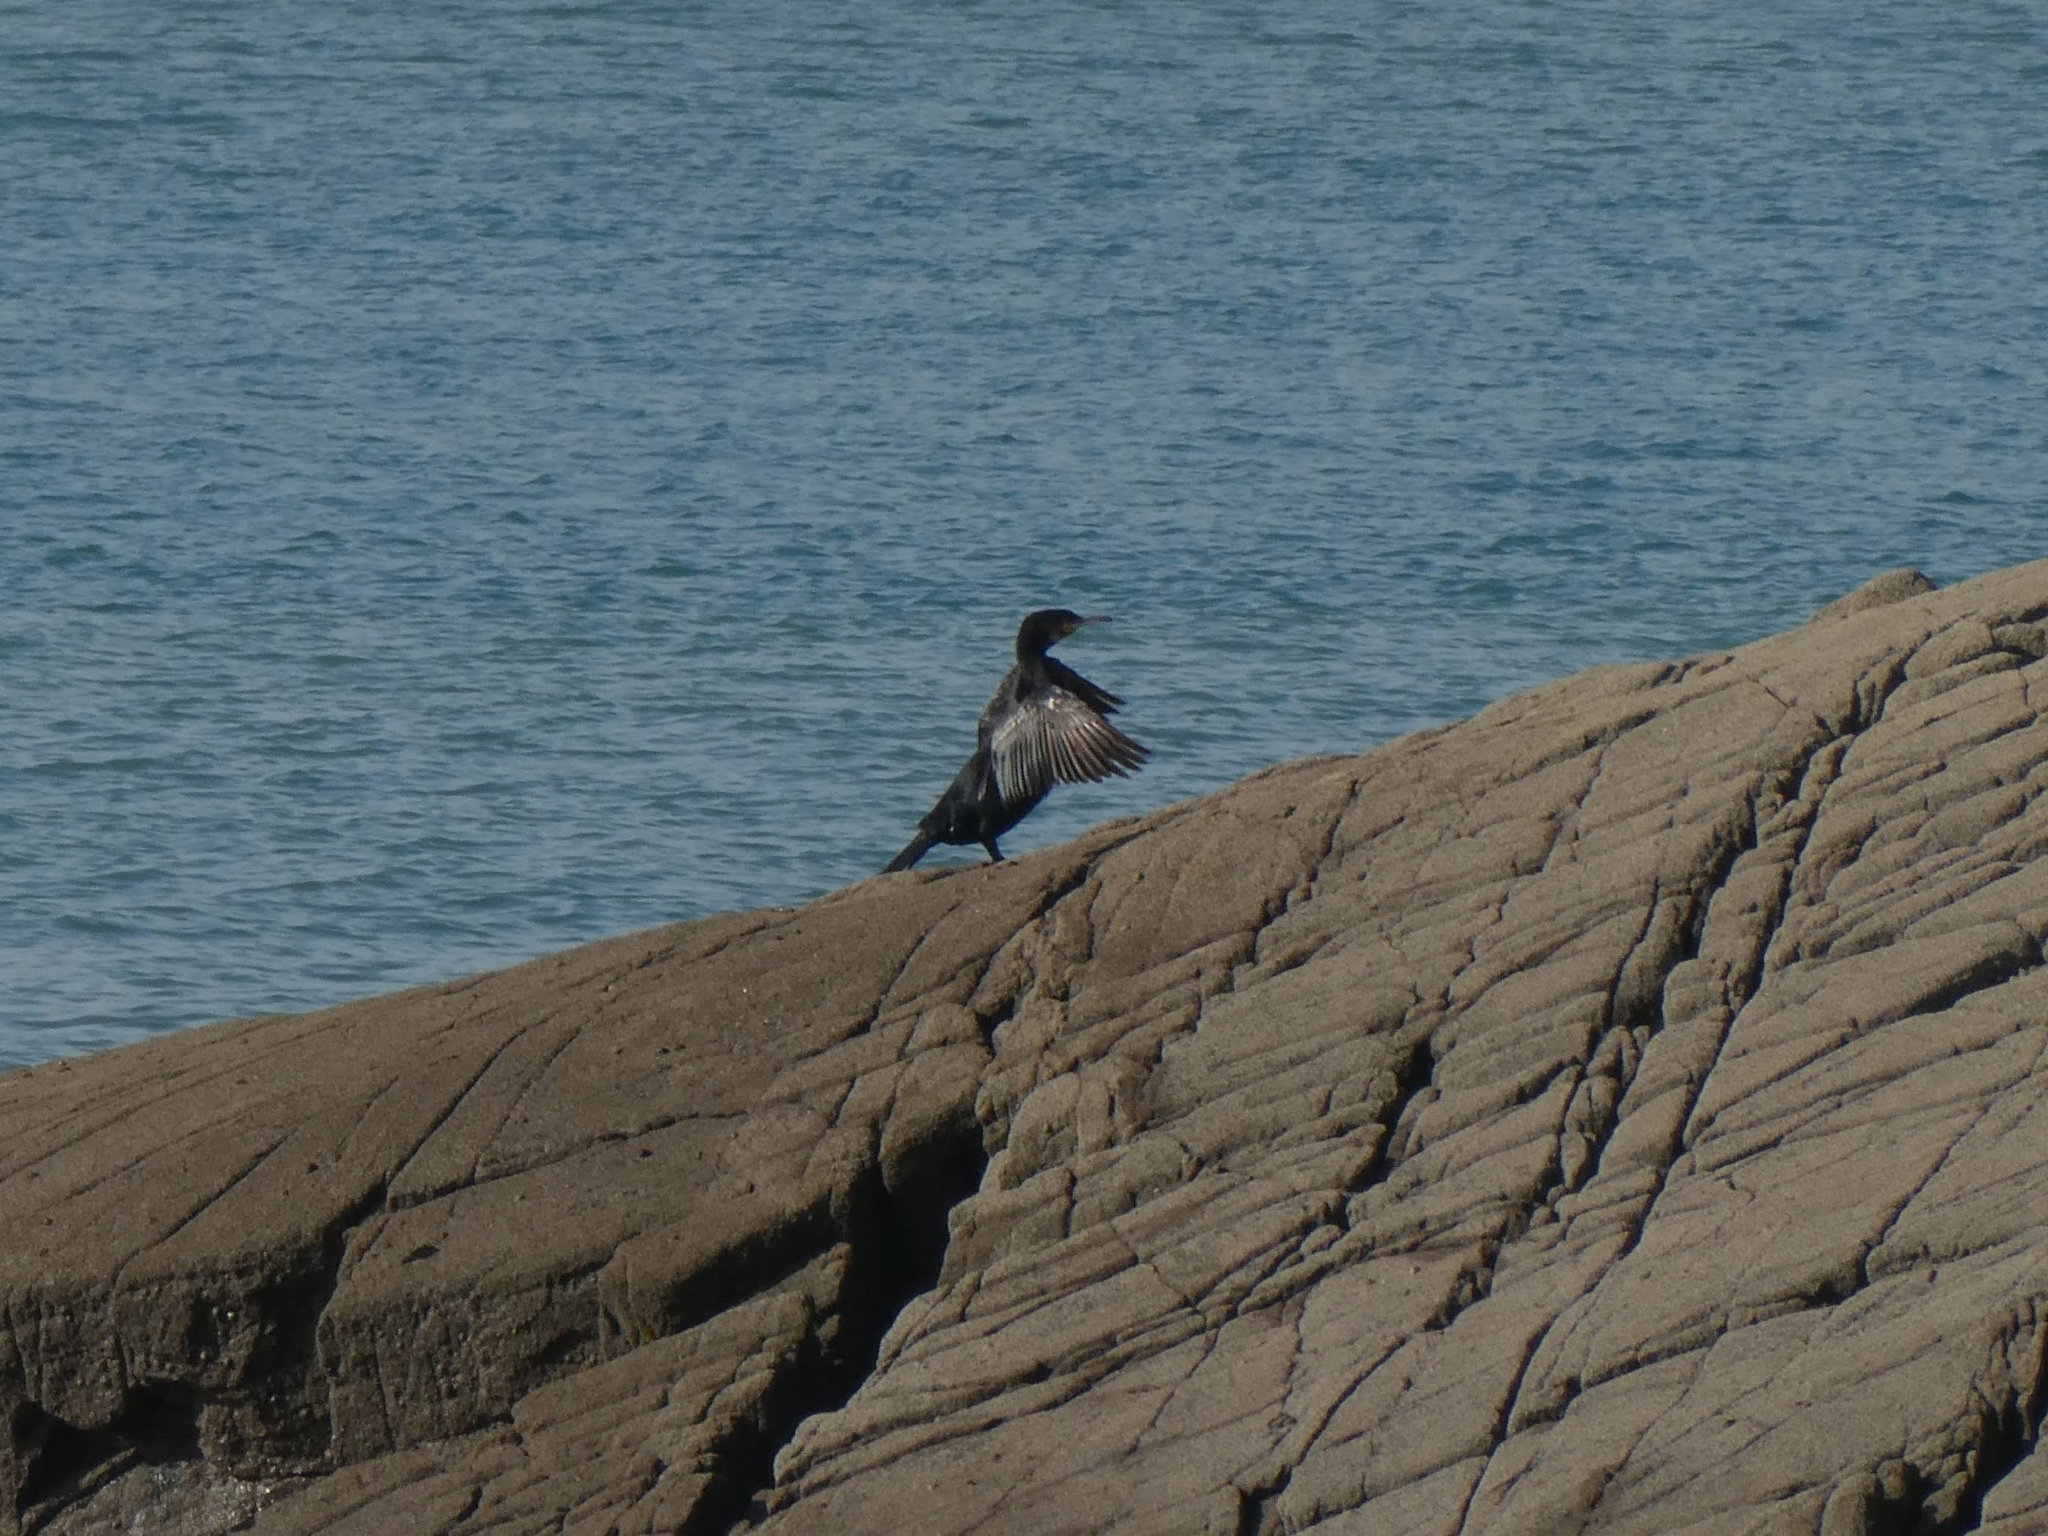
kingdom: Animalia
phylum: Chordata
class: Aves
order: Suliformes
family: Phalacrocoracidae
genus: Phalacrocorax
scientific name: Phalacrocorax aristotelis
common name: European shag
